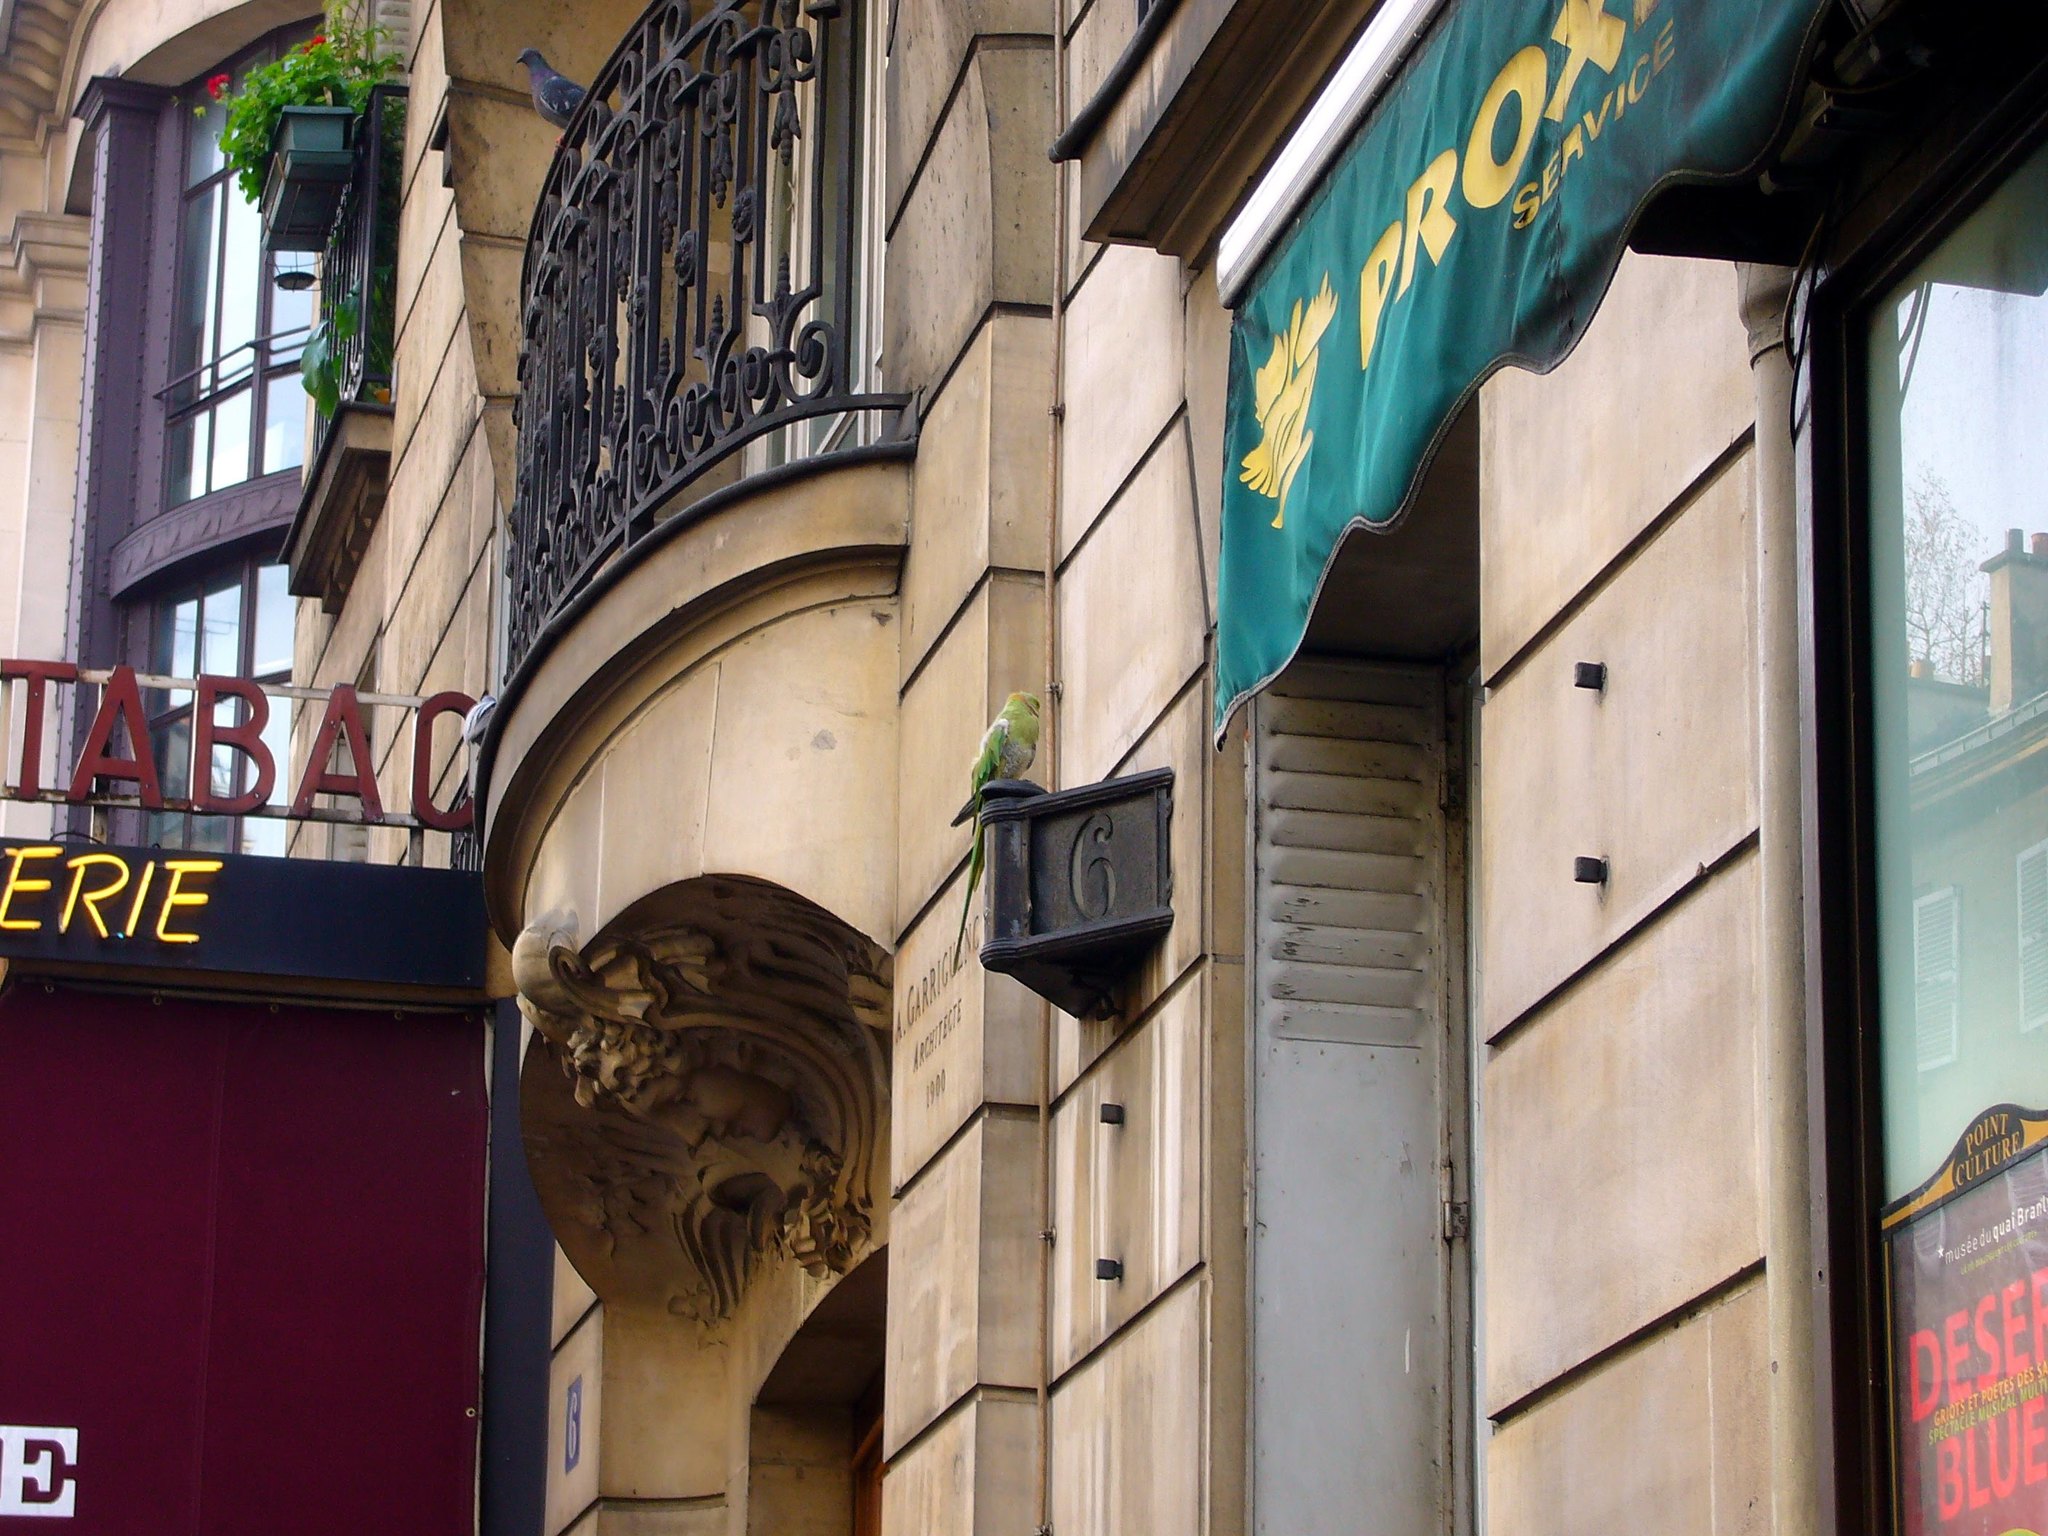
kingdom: Animalia
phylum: Chordata
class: Aves
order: Psittaciformes
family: Psittacidae
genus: Psittacula
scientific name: Psittacula krameri
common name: Rose-ringed parakeet
